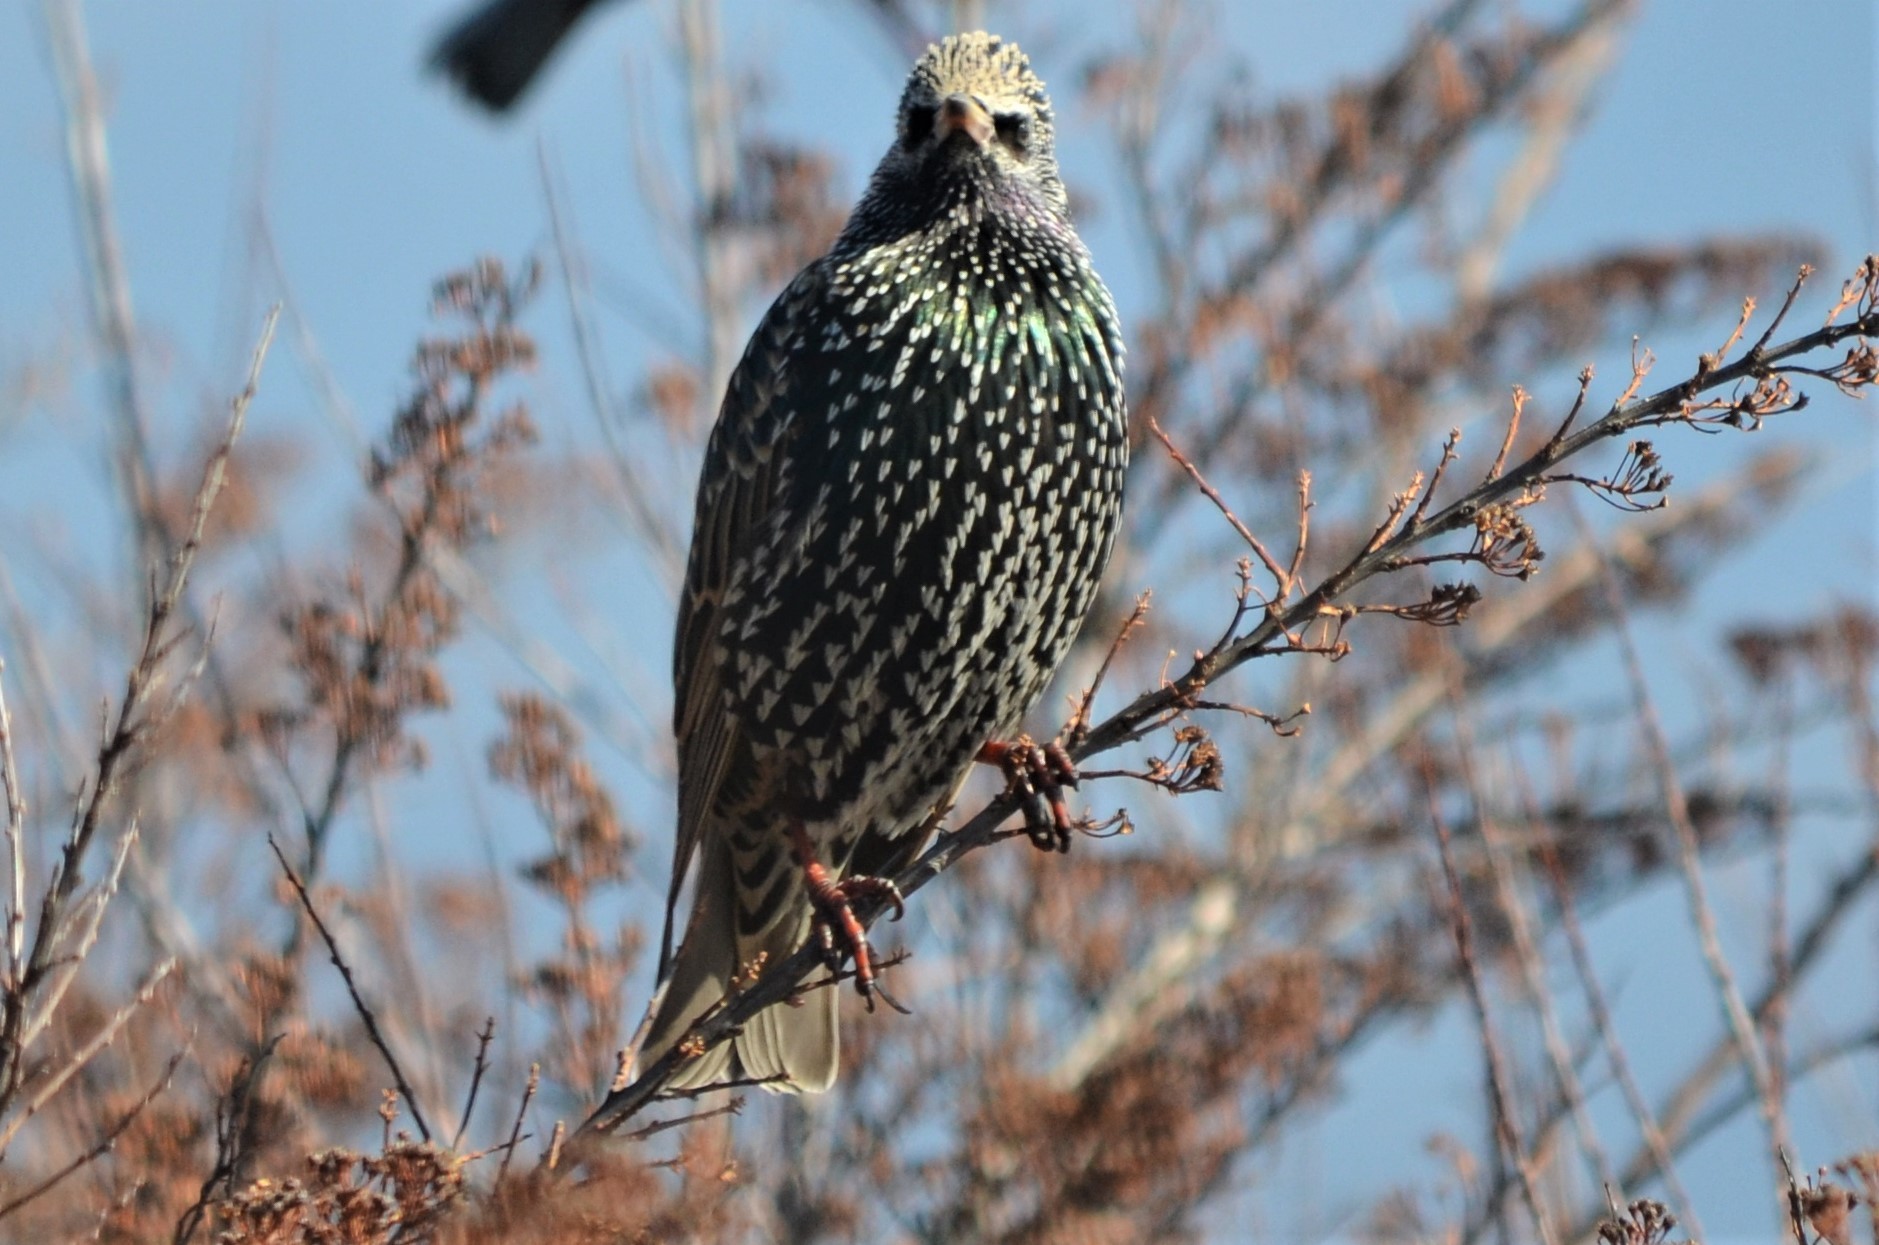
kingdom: Animalia
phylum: Chordata
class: Aves
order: Passeriformes
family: Sturnidae
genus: Sturnus
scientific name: Sturnus vulgaris
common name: Common starling
